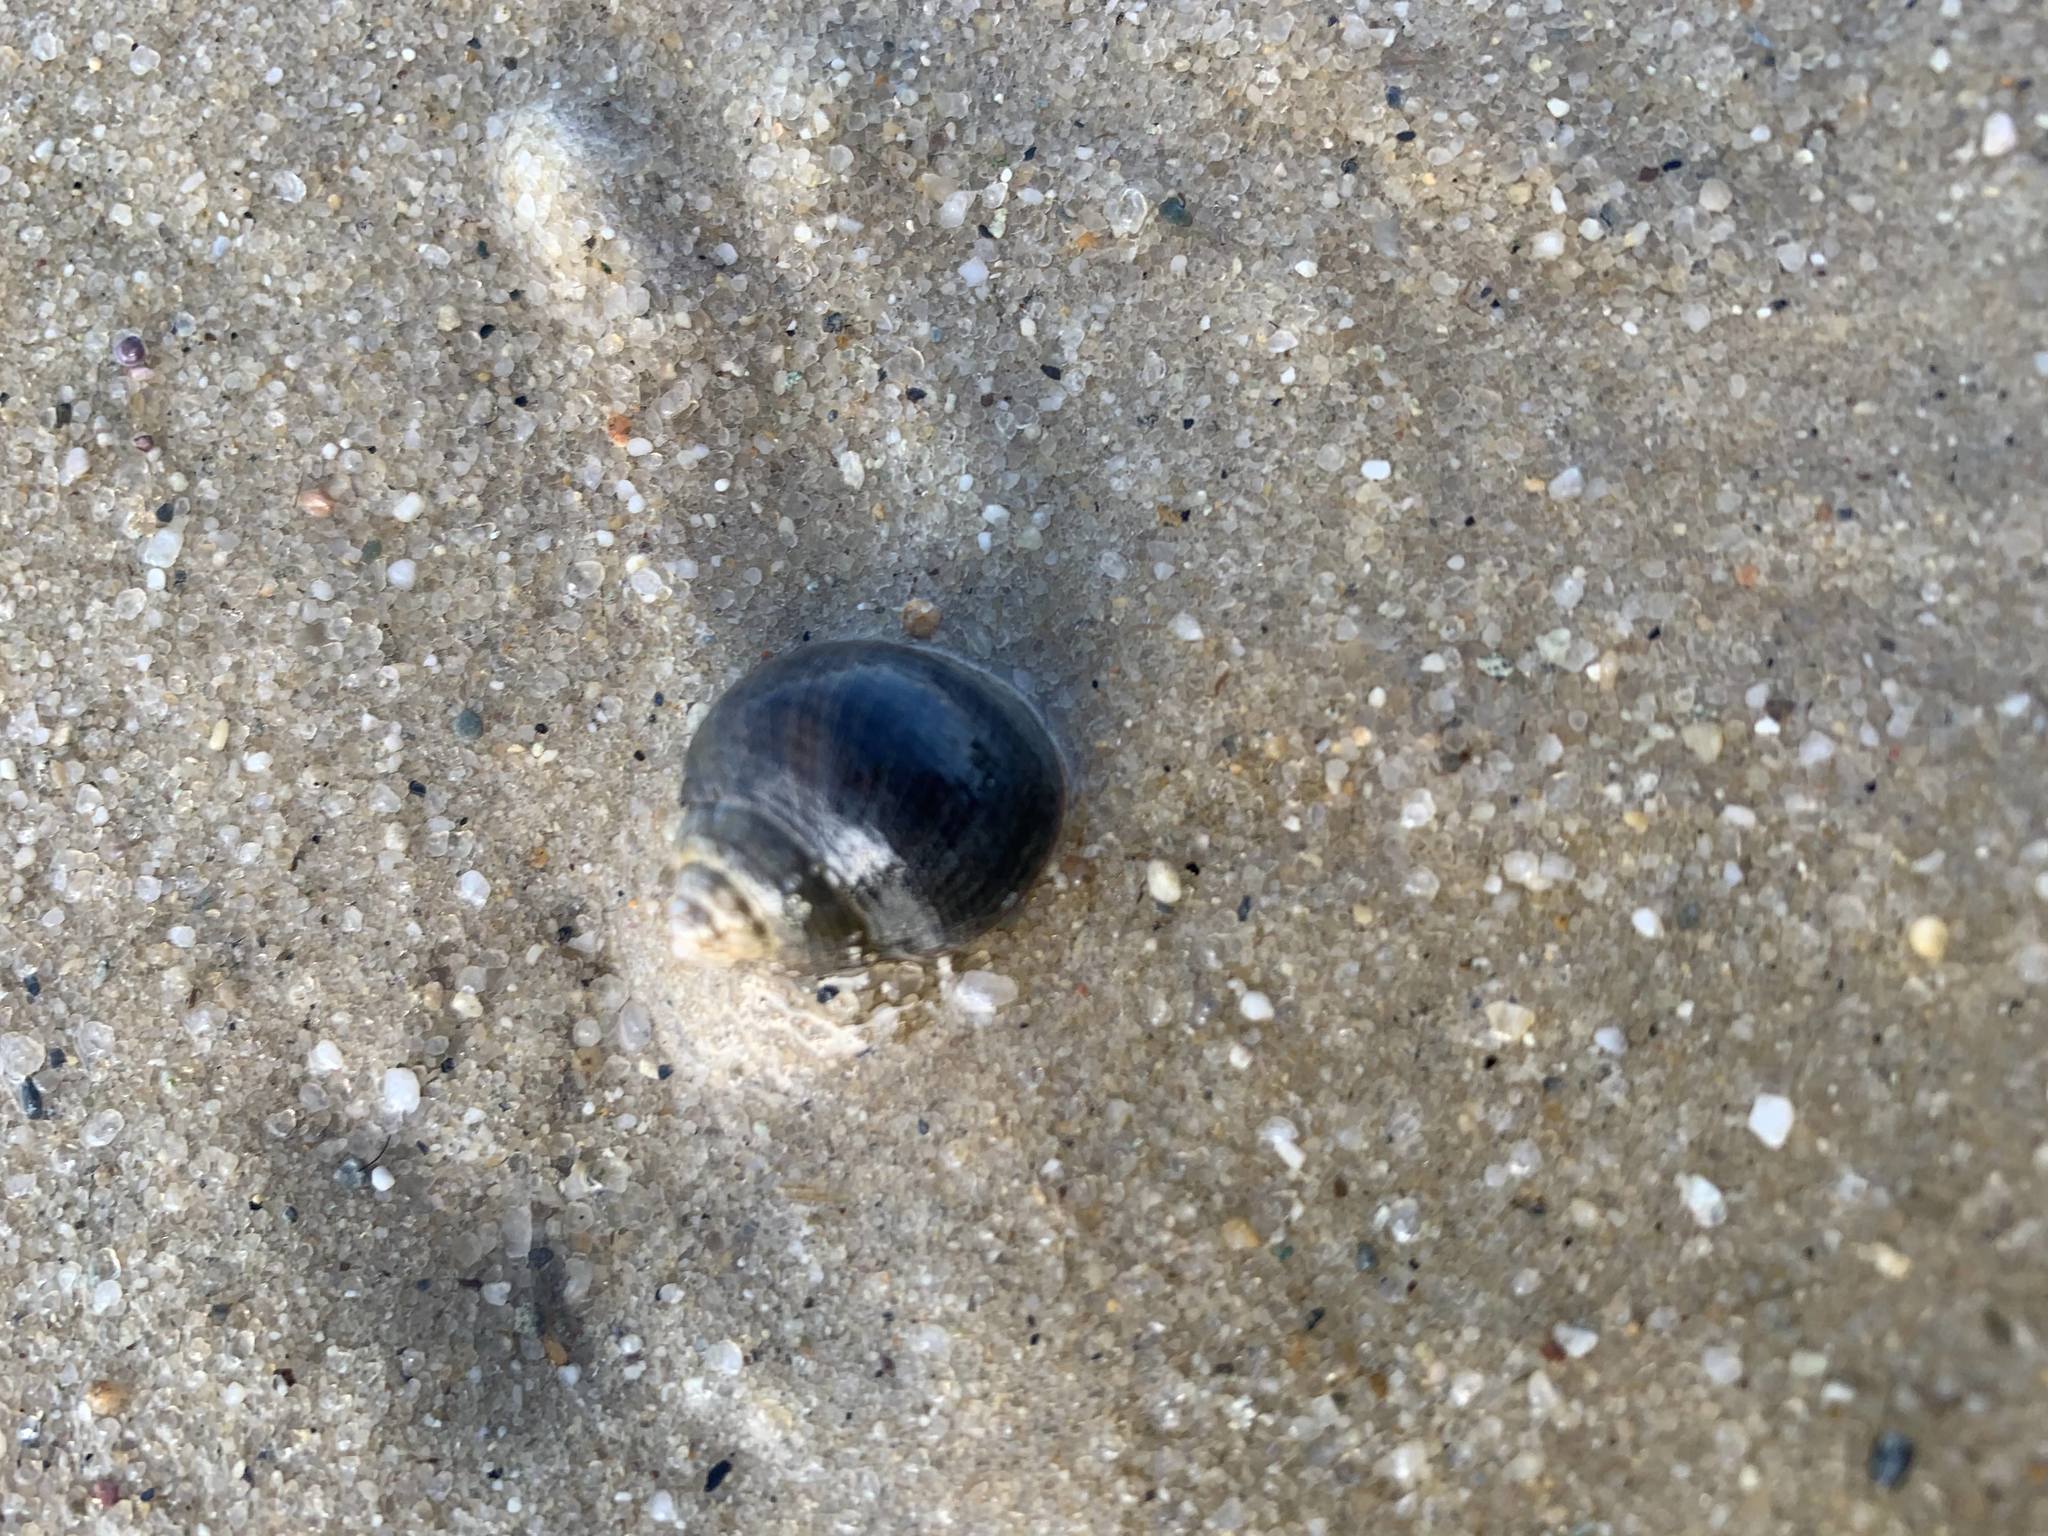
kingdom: Animalia
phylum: Mollusca
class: Gastropoda
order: Littorinimorpha
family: Littorinidae
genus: Littorina
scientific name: Littorina littorea
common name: Common periwinkle
